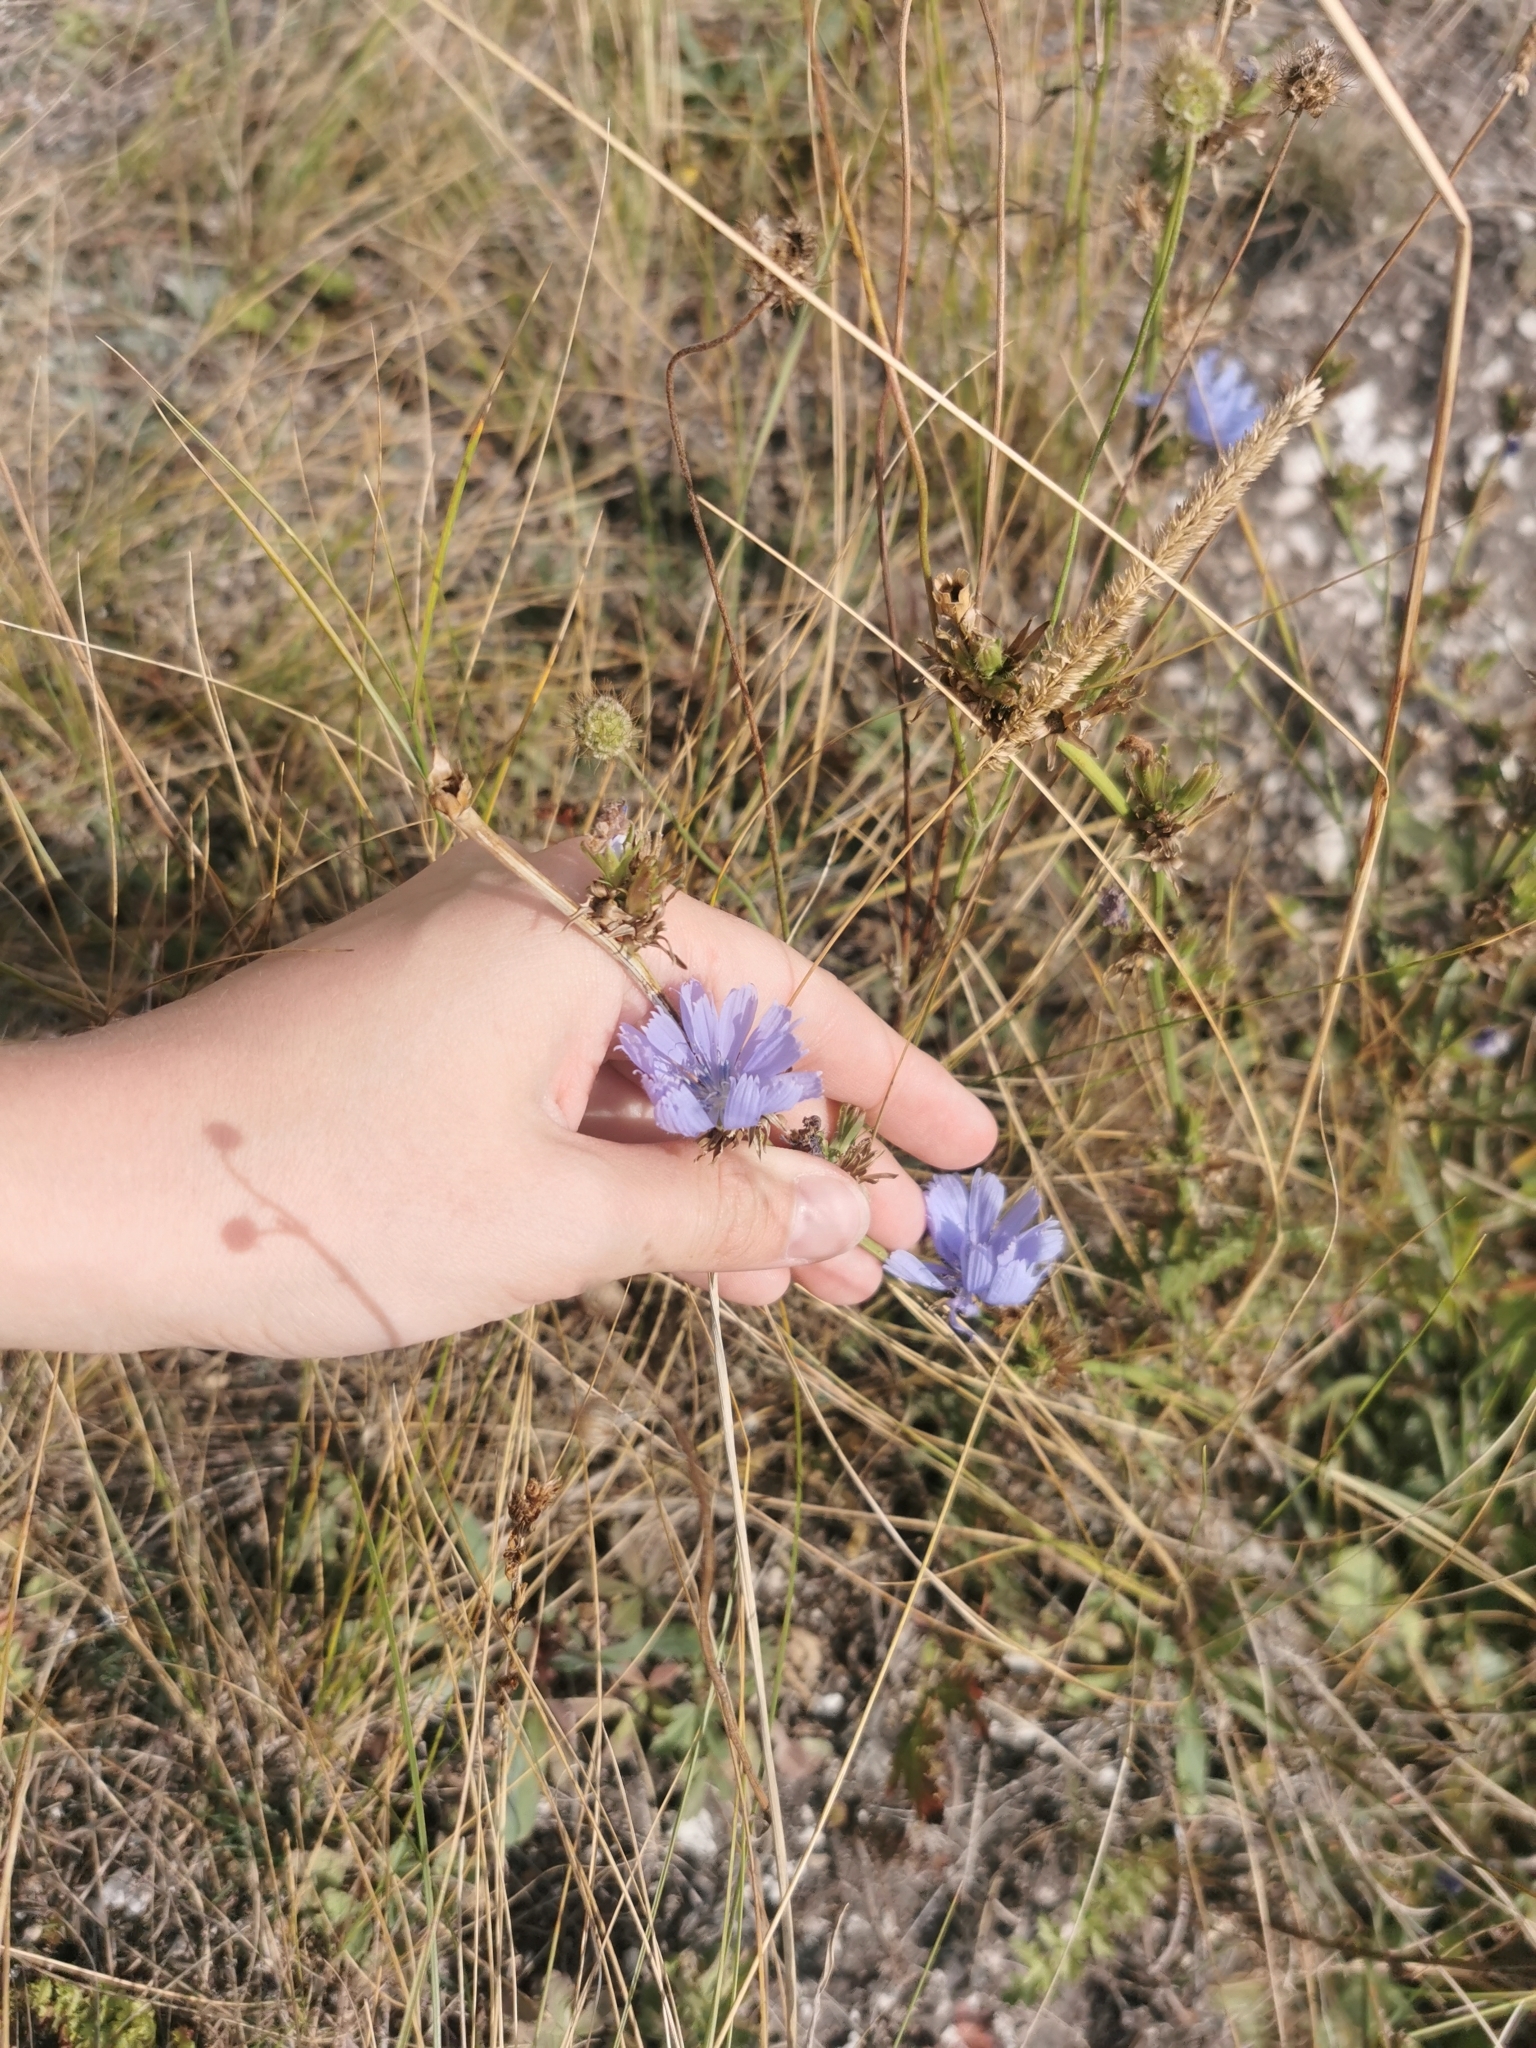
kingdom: Plantae
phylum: Tracheophyta
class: Magnoliopsida
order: Asterales
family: Asteraceae
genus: Cichorium
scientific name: Cichorium intybus
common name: Chicory
